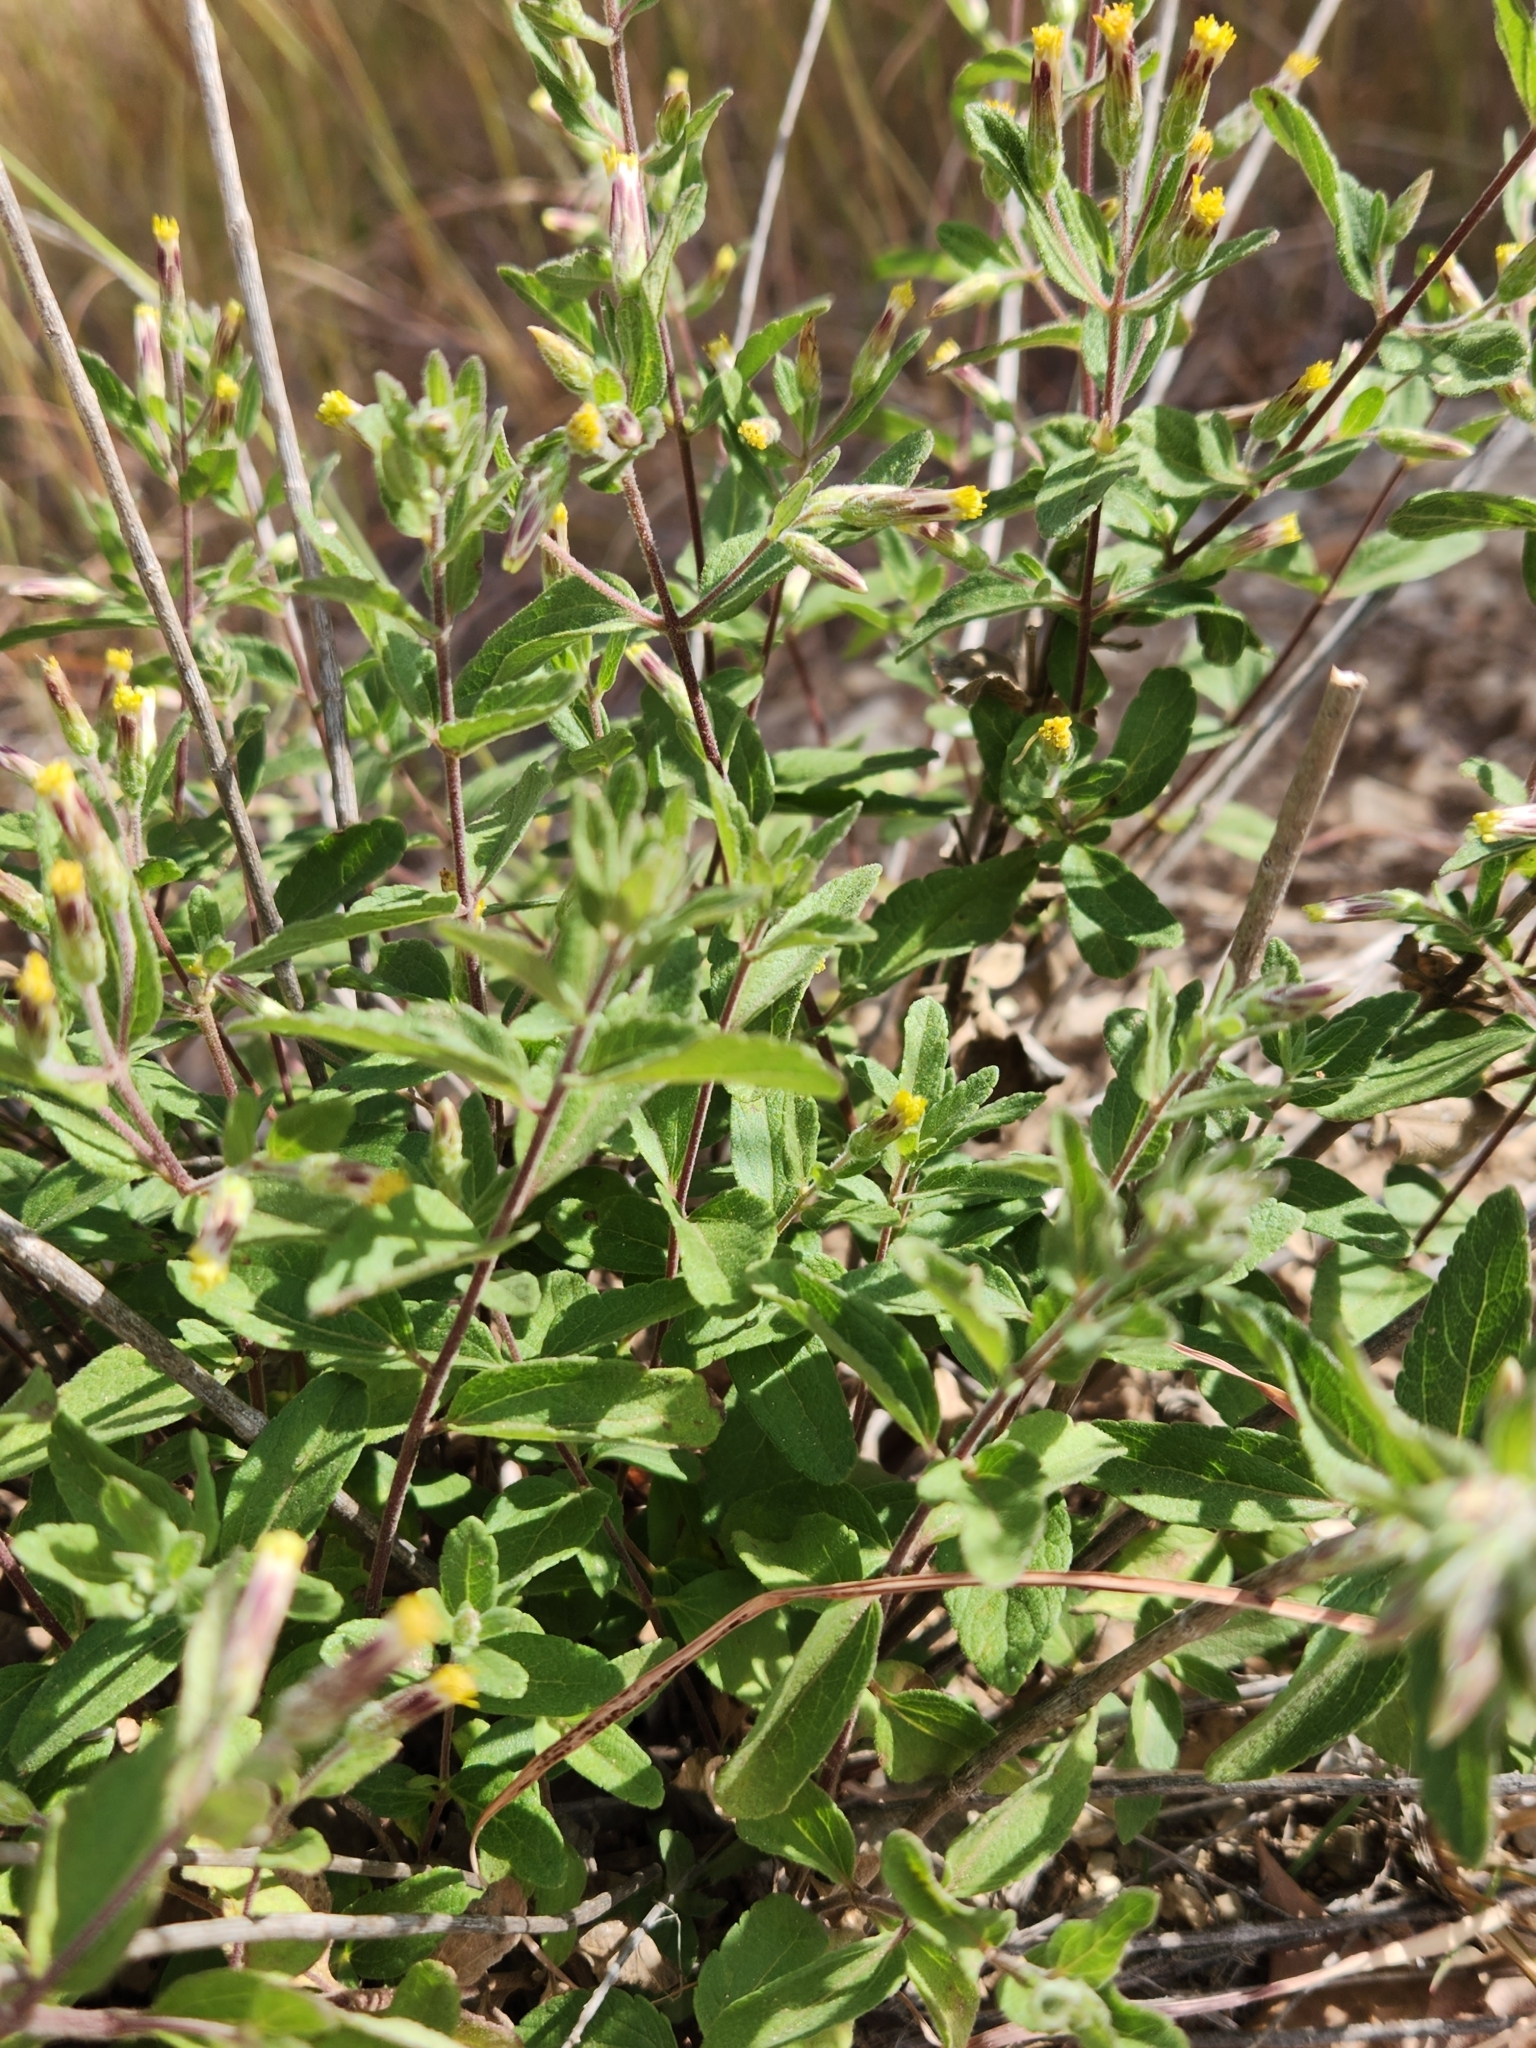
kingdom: Plantae
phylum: Tracheophyta
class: Magnoliopsida
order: Asterales
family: Asteraceae
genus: Brickellia
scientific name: Brickellia cylindracea
